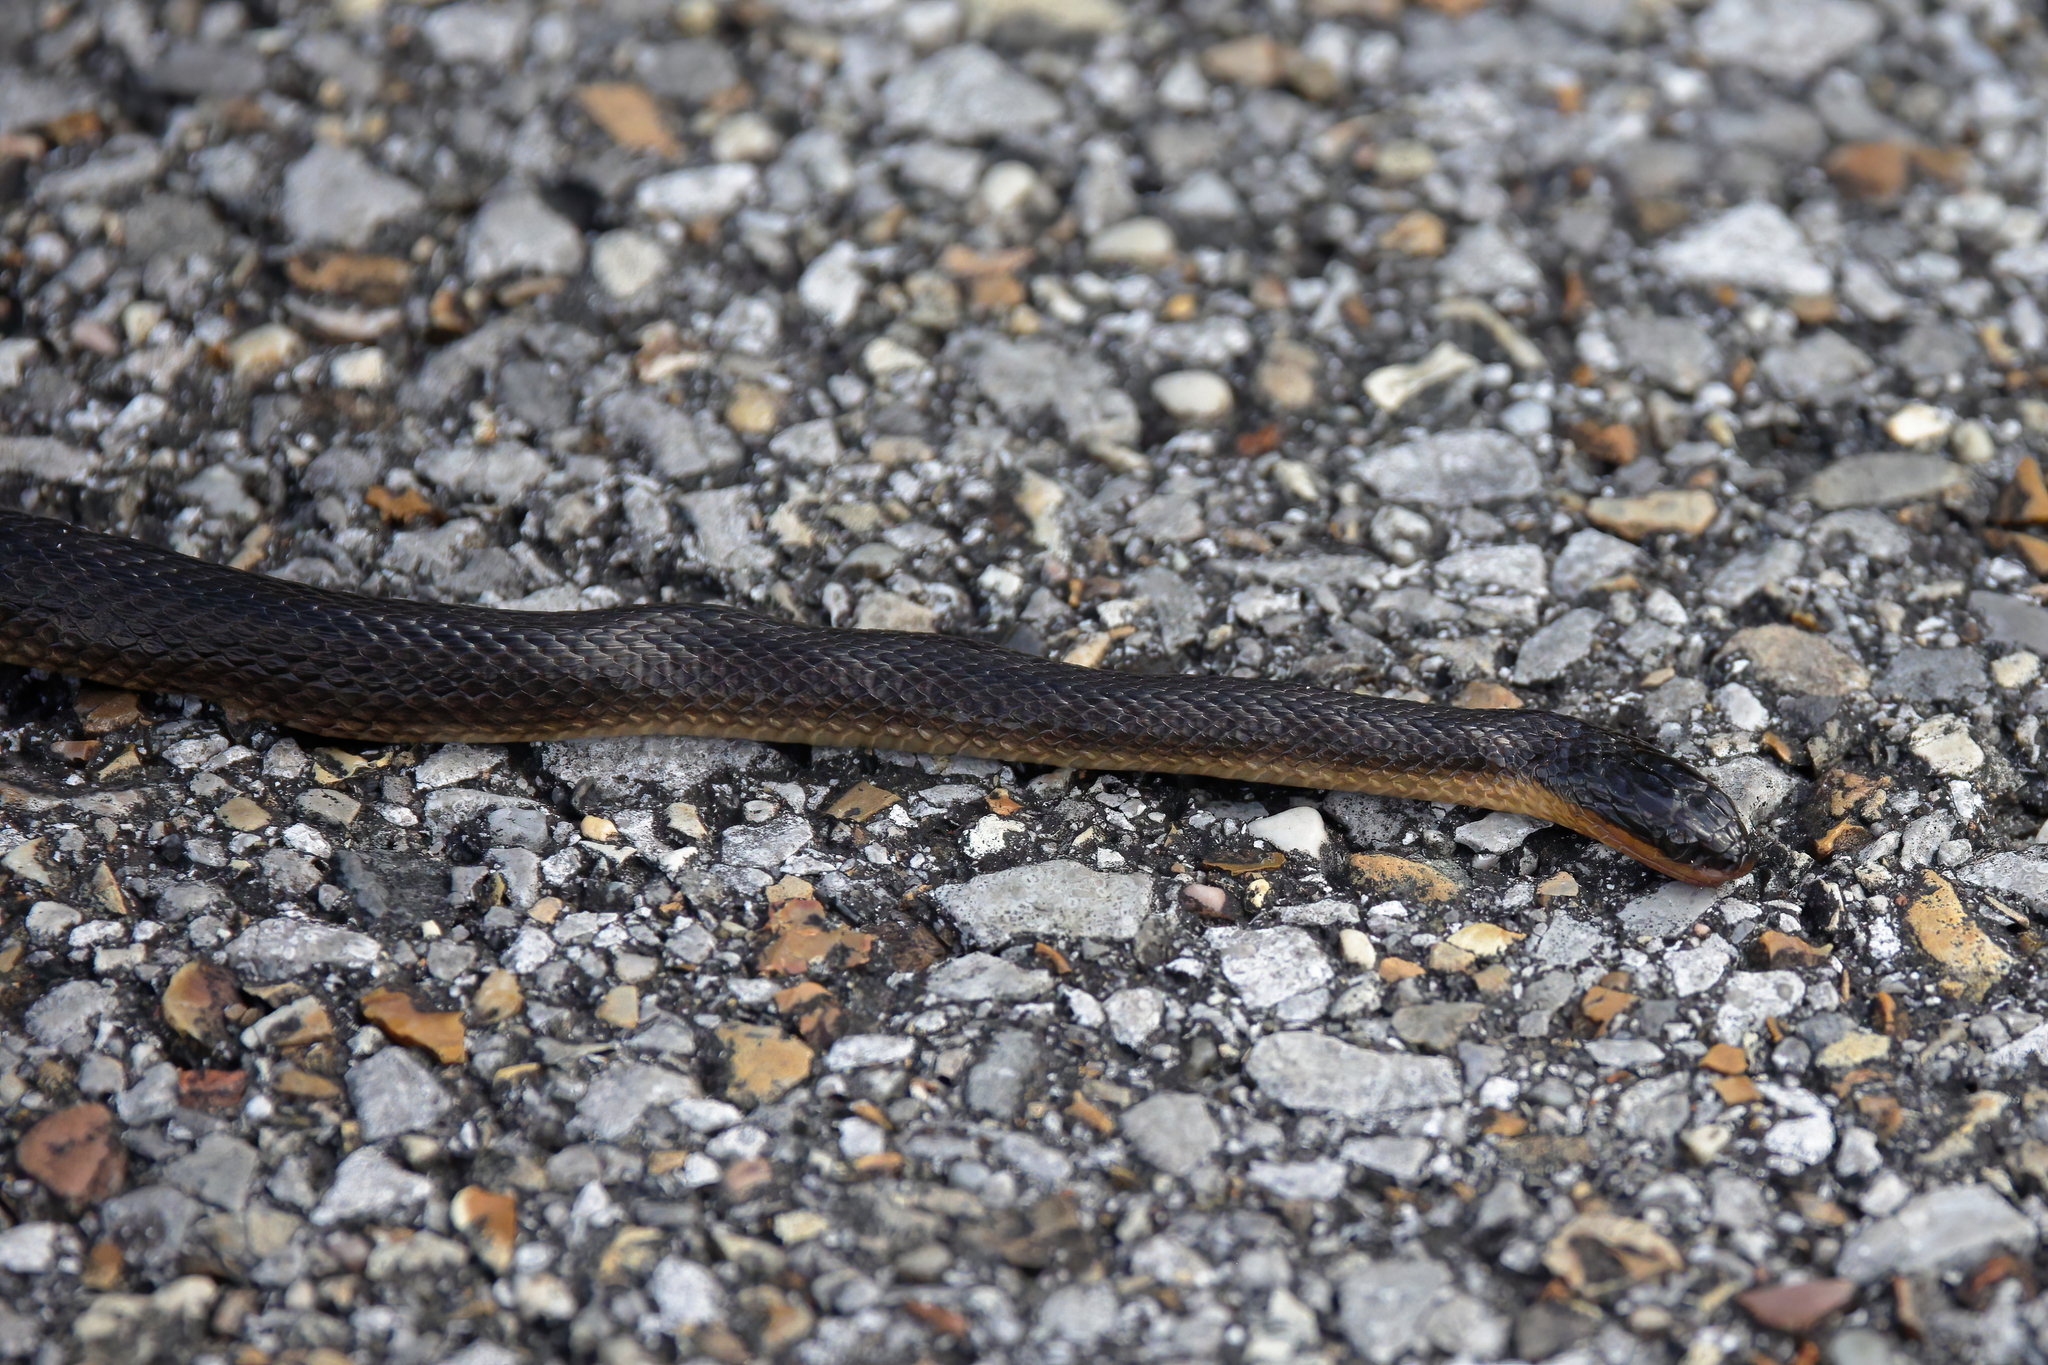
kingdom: Animalia
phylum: Chordata
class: Squamata
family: Colubridae
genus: Liodytes
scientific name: Liodytes rigida
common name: Crayfish snake
